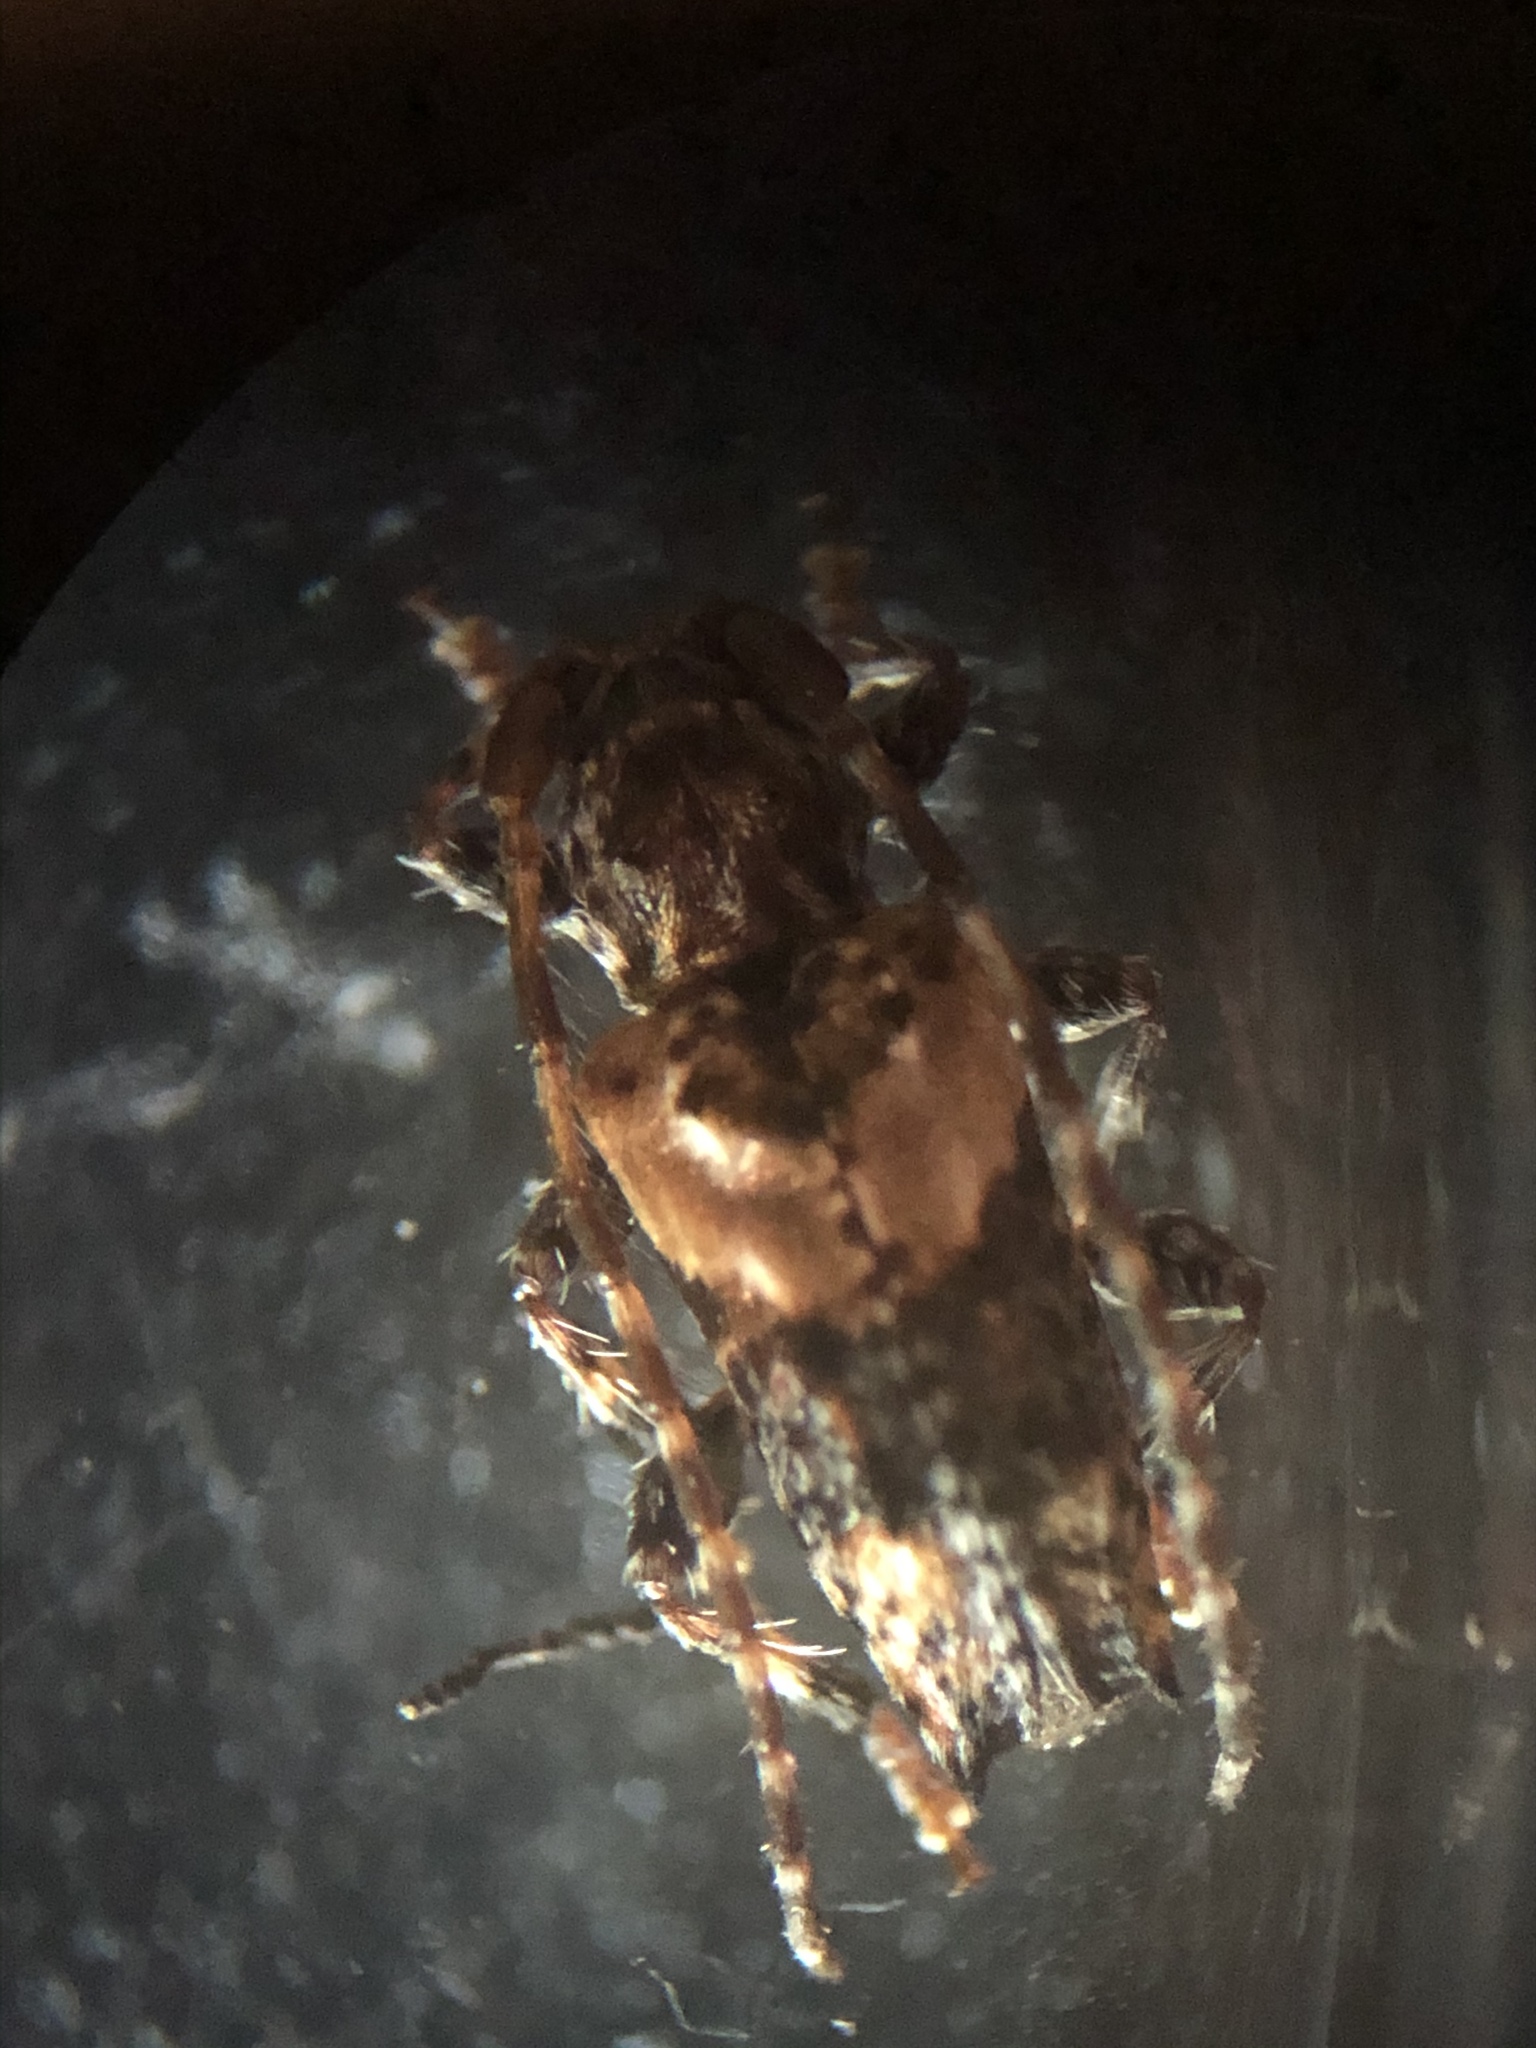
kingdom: Animalia
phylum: Arthropoda
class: Insecta
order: Coleoptera
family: Cerambycidae
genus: Pogonocherus
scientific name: Pogonocherus hispidus
